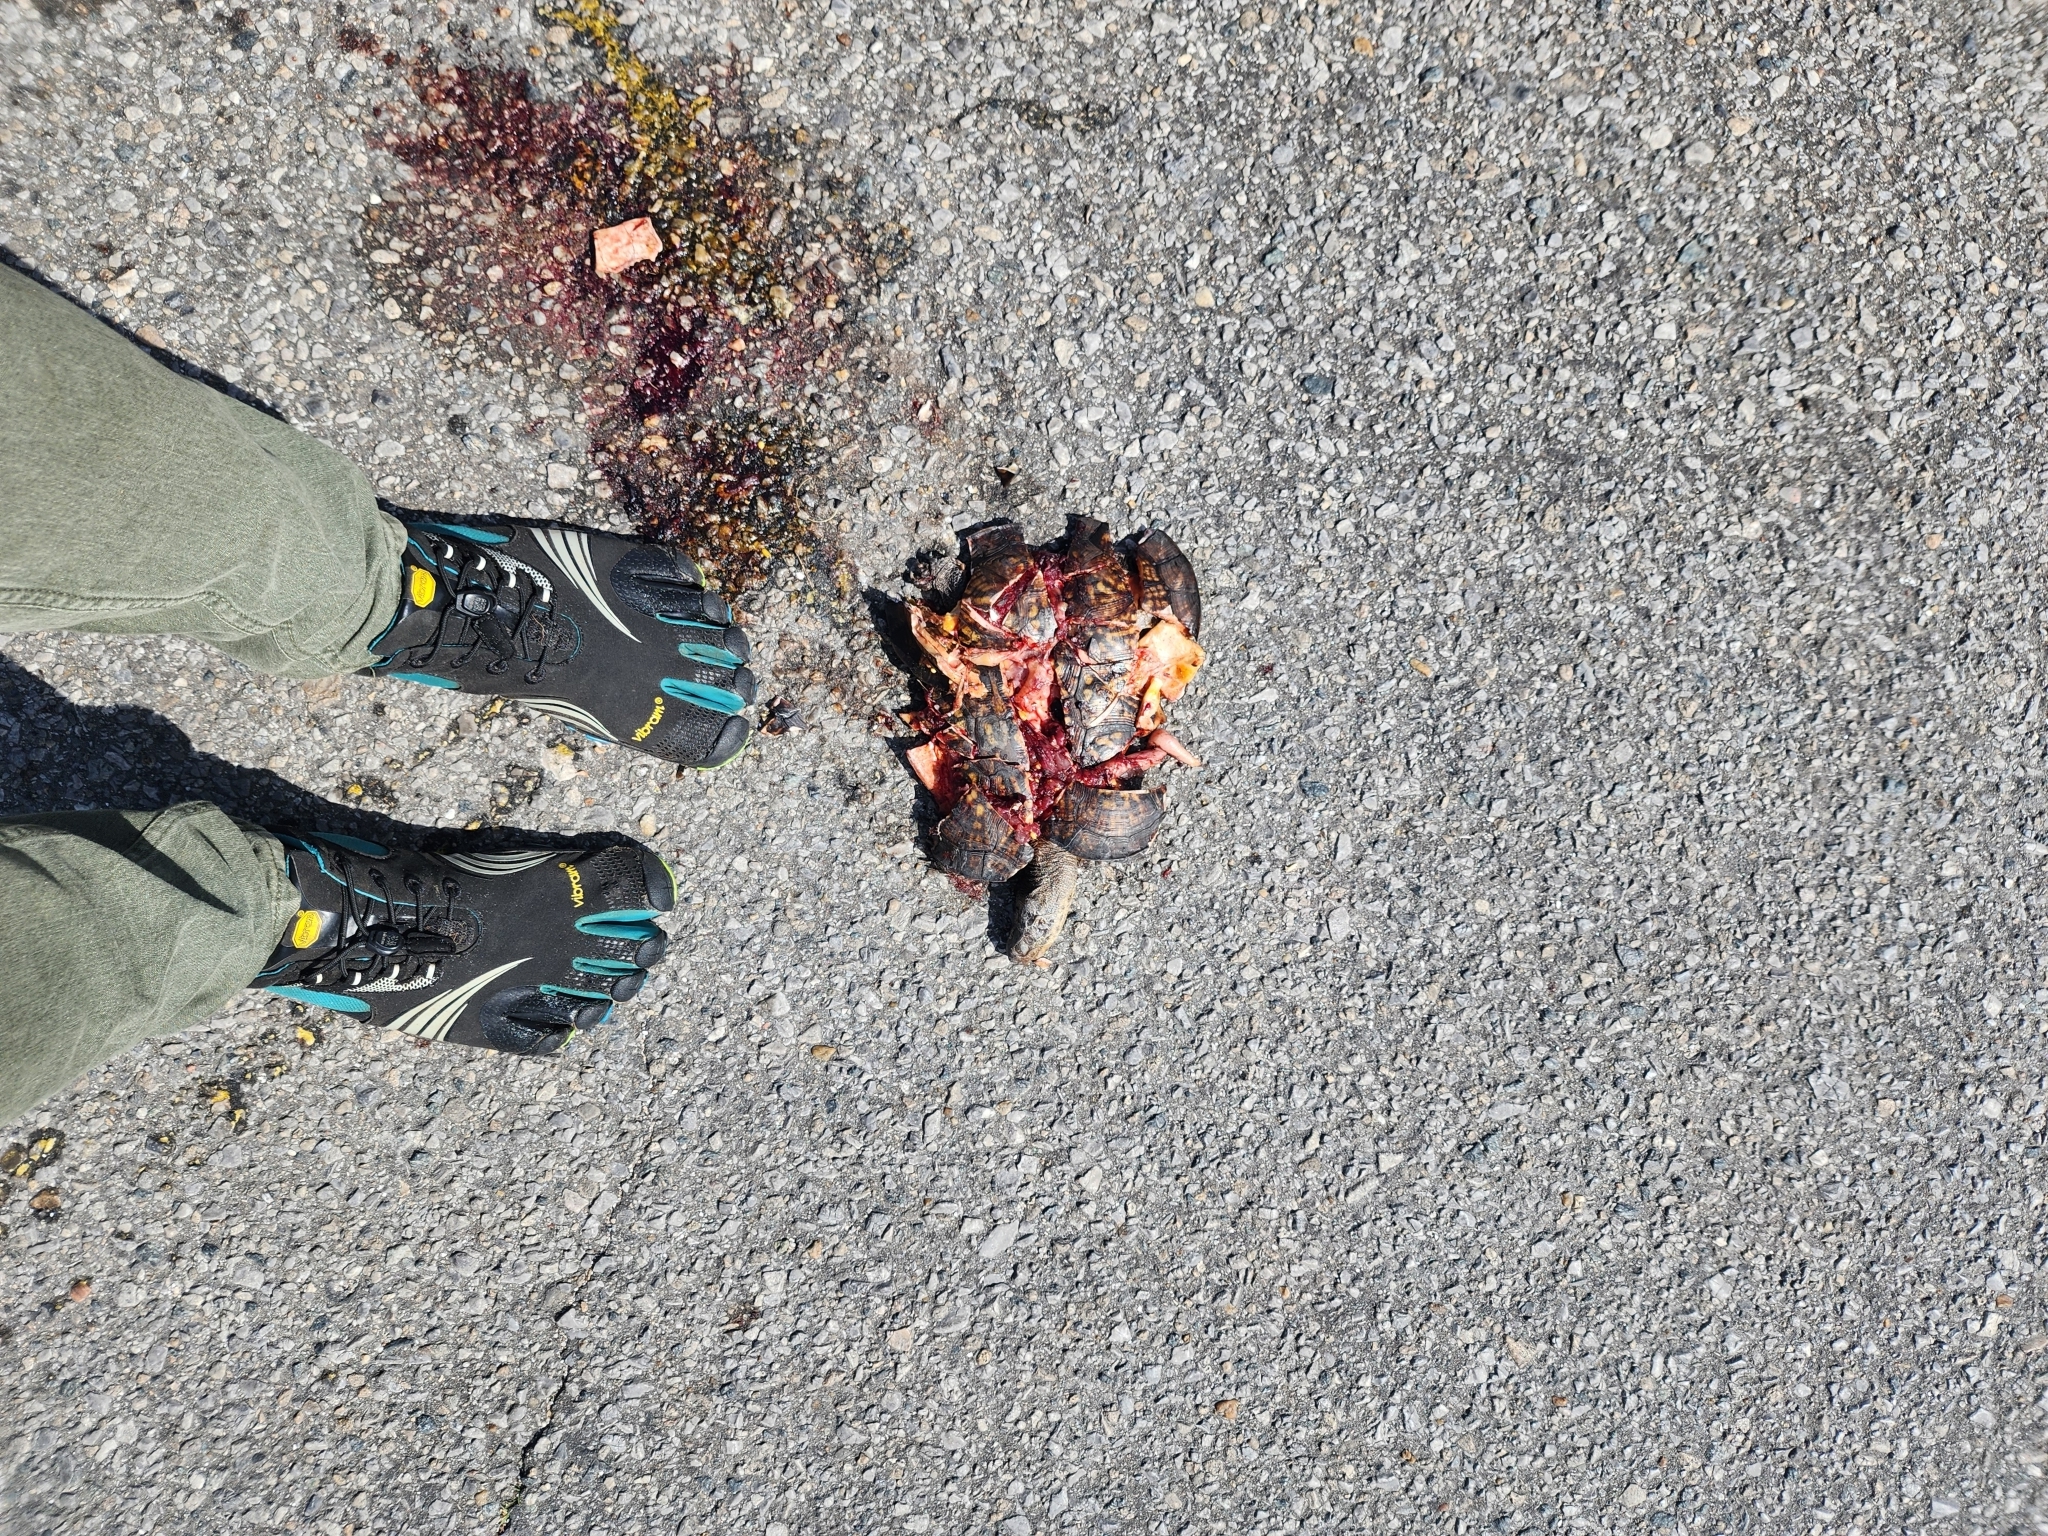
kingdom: Animalia
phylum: Chordata
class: Testudines
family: Emydidae
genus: Terrapene
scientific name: Terrapene carolina
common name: Common box turtle
